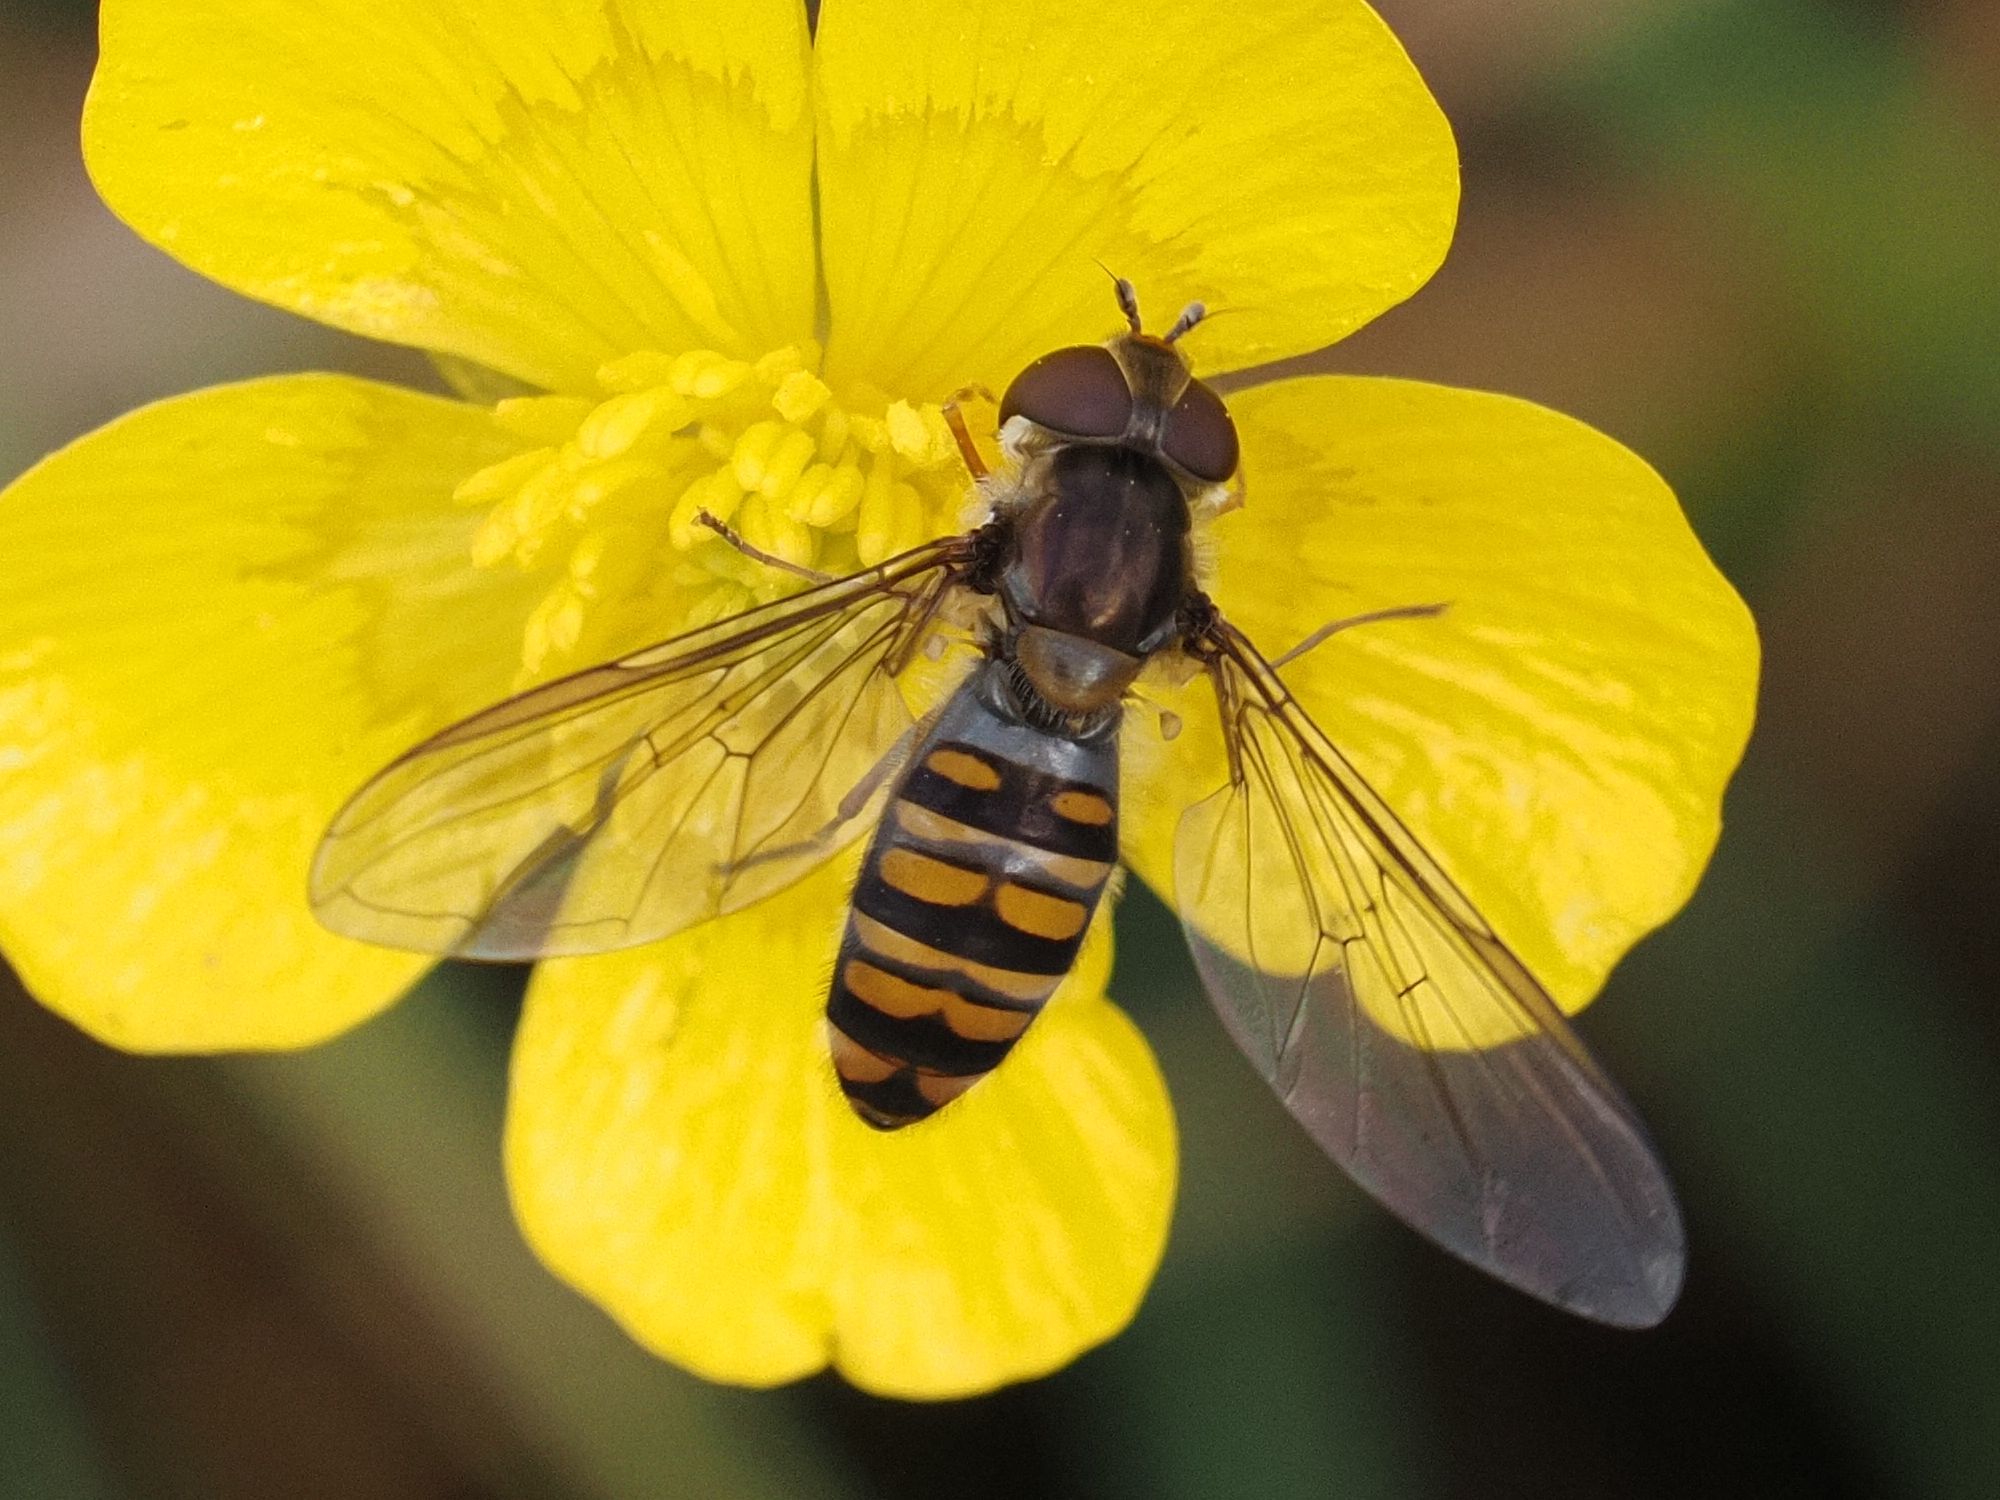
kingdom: Animalia
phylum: Arthropoda
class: Insecta
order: Diptera
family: Syrphidae
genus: Episyrphus
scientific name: Episyrphus balteatus
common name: Marmalade hoverfly
